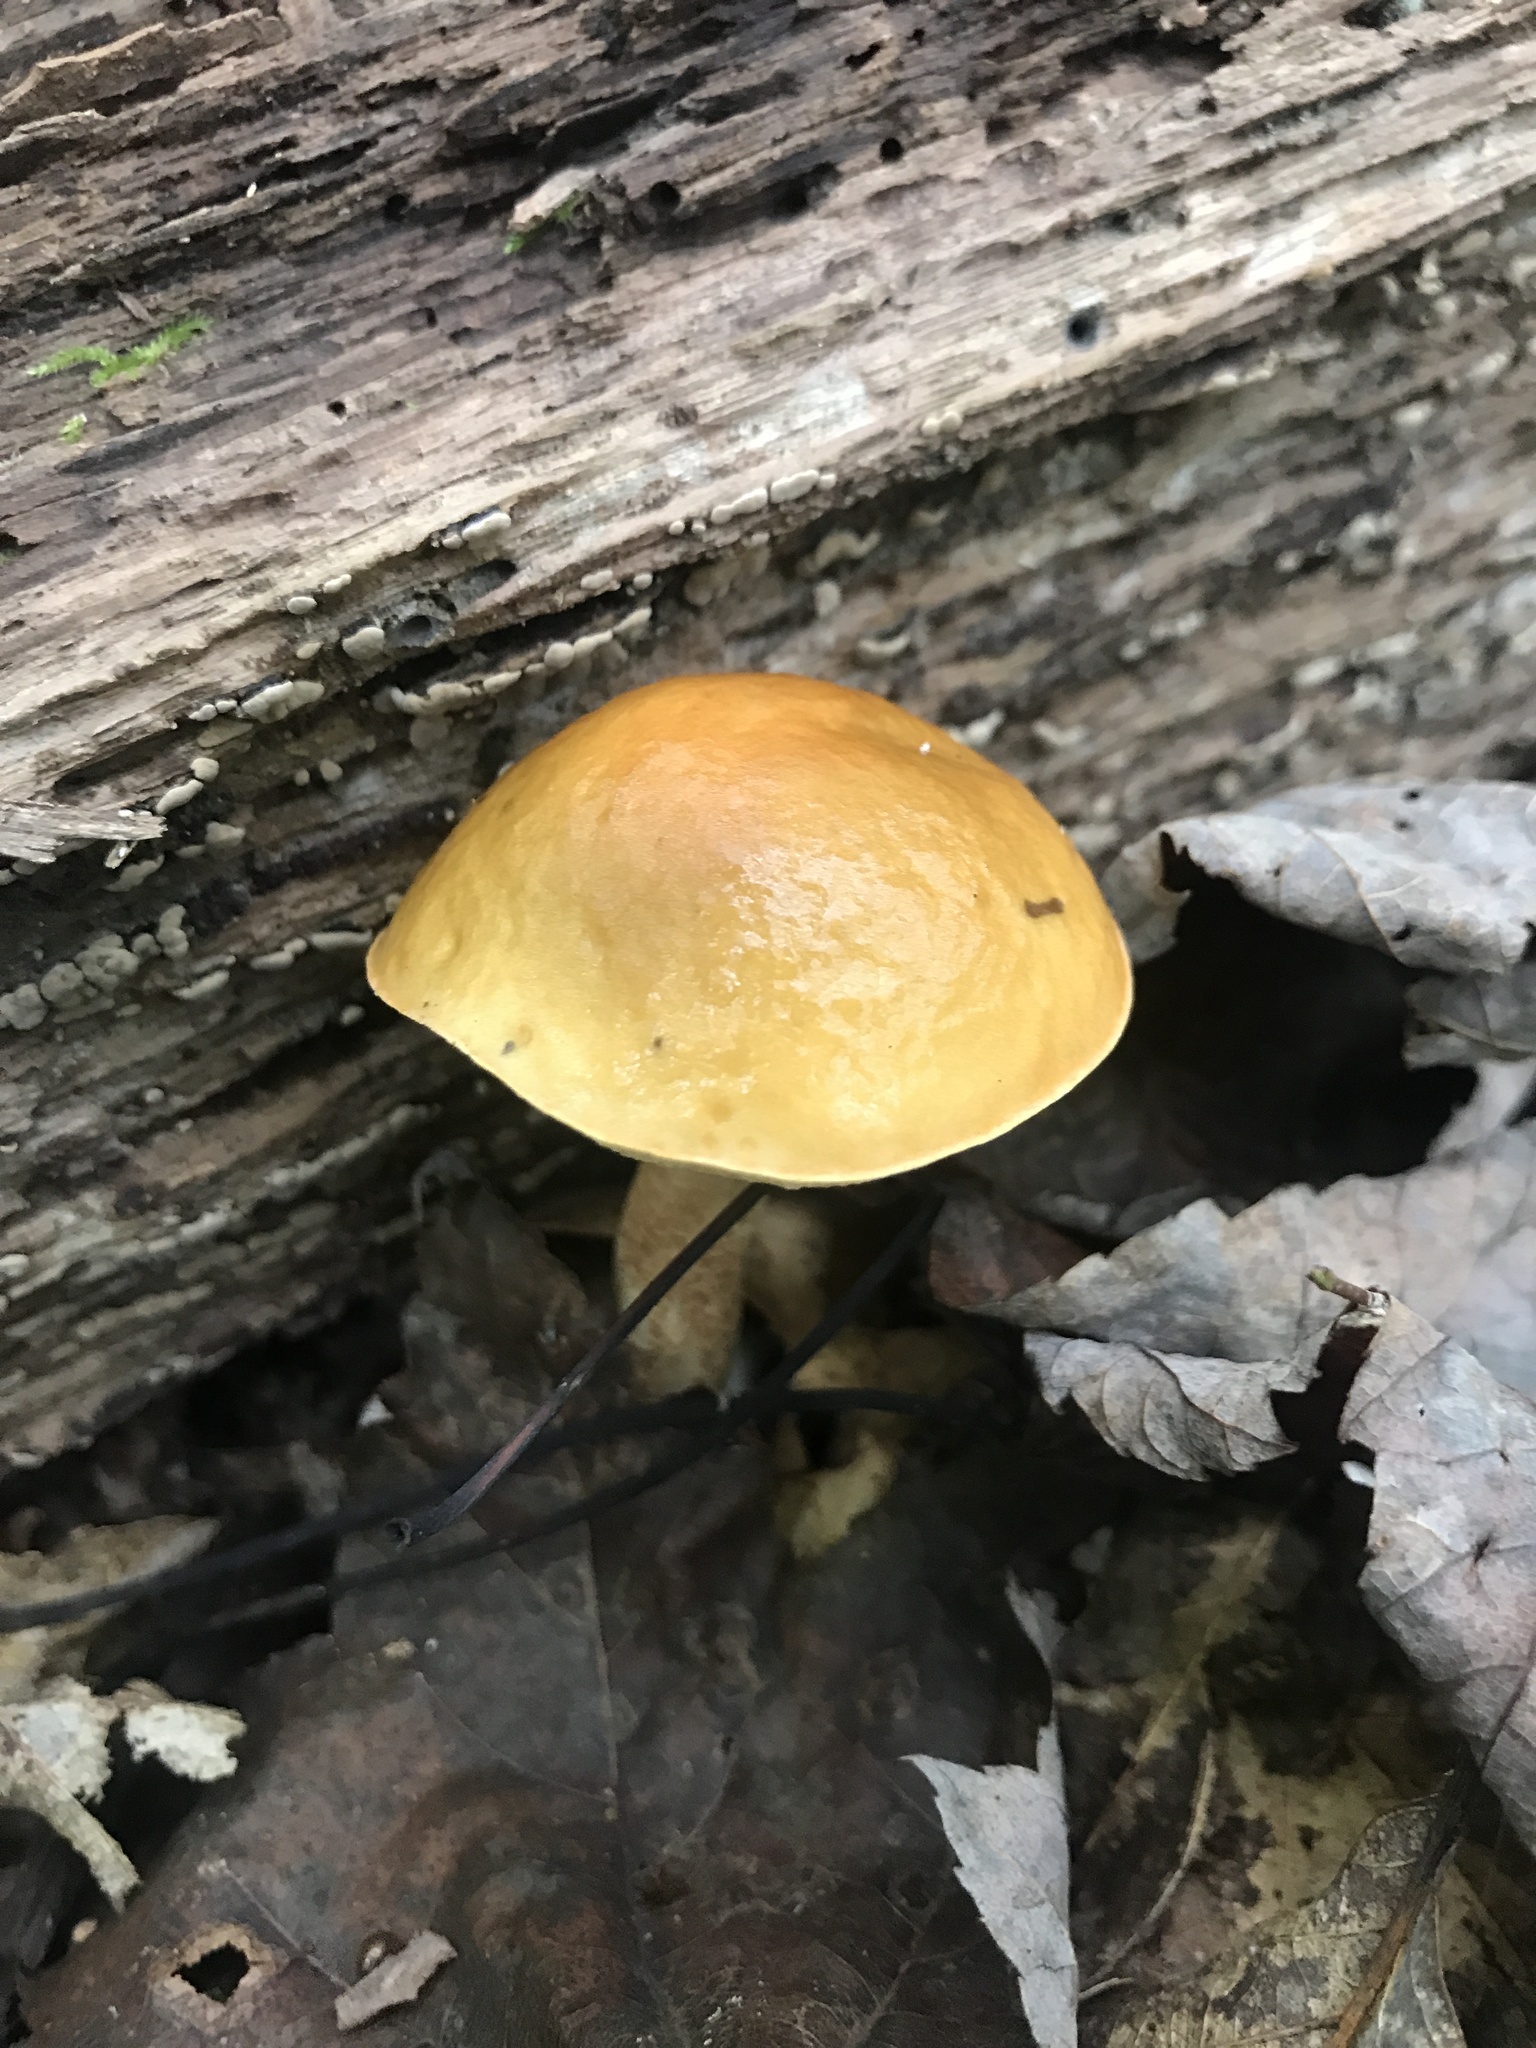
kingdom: Fungi
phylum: Basidiomycota
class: Agaricomycetes
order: Boletales
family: Boletaceae
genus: Leccinum
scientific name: Leccinum longicurvipes
